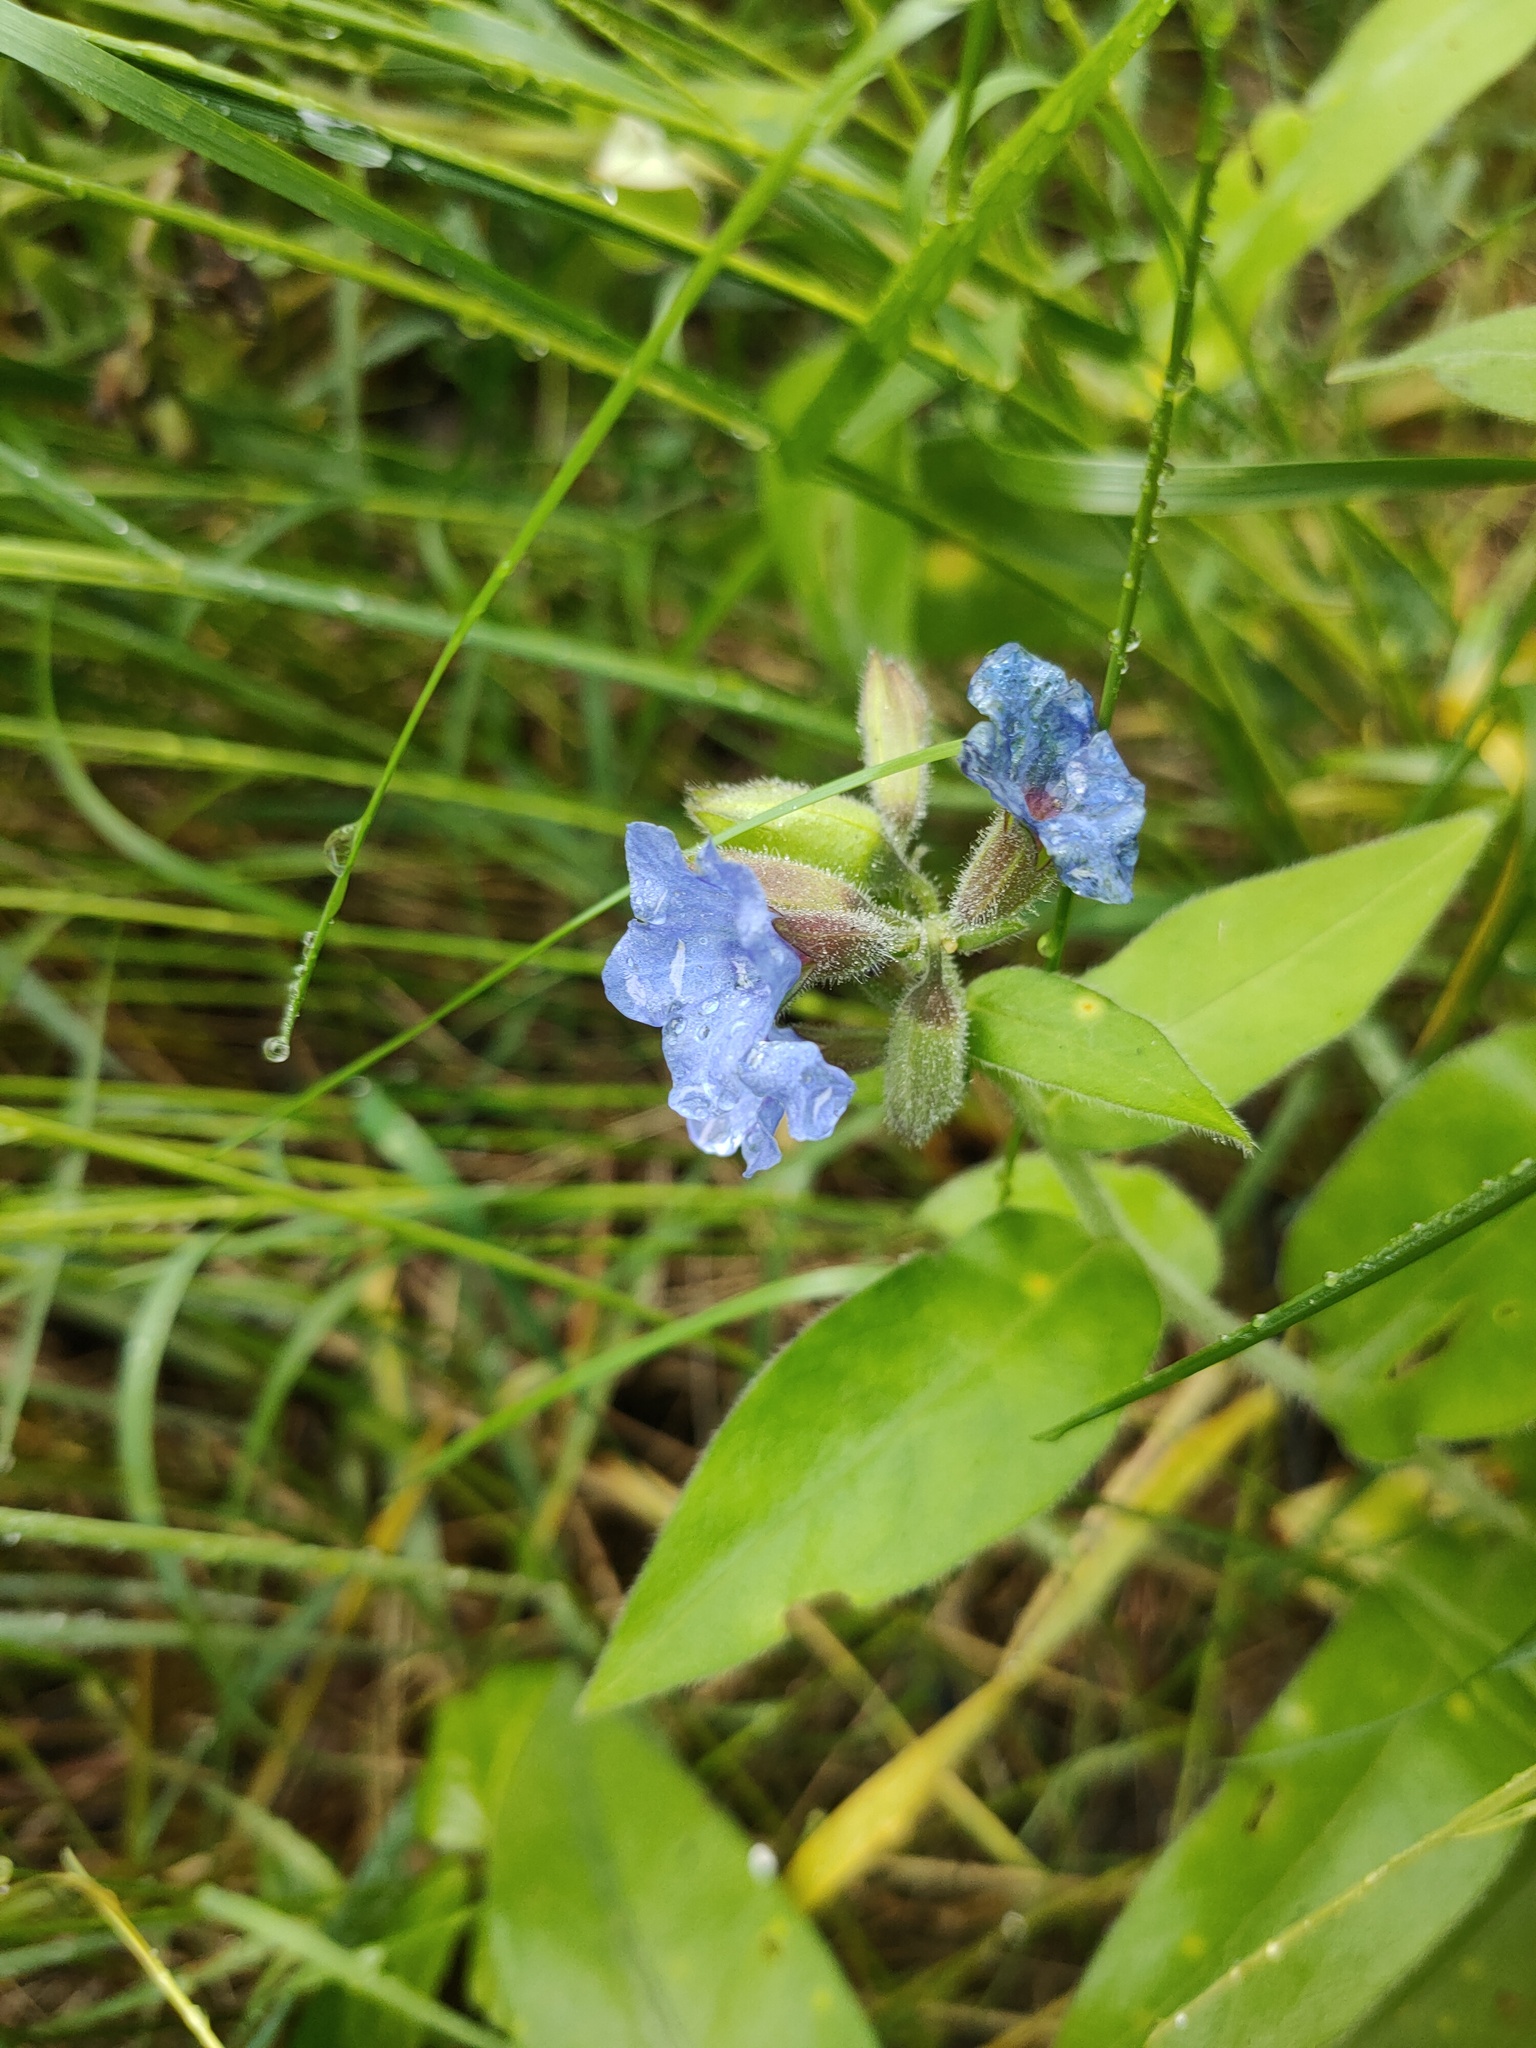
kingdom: Plantae
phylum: Tracheophyta
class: Magnoliopsida
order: Boraginales
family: Boraginaceae
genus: Pulmonaria
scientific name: Pulmonaria mollis
